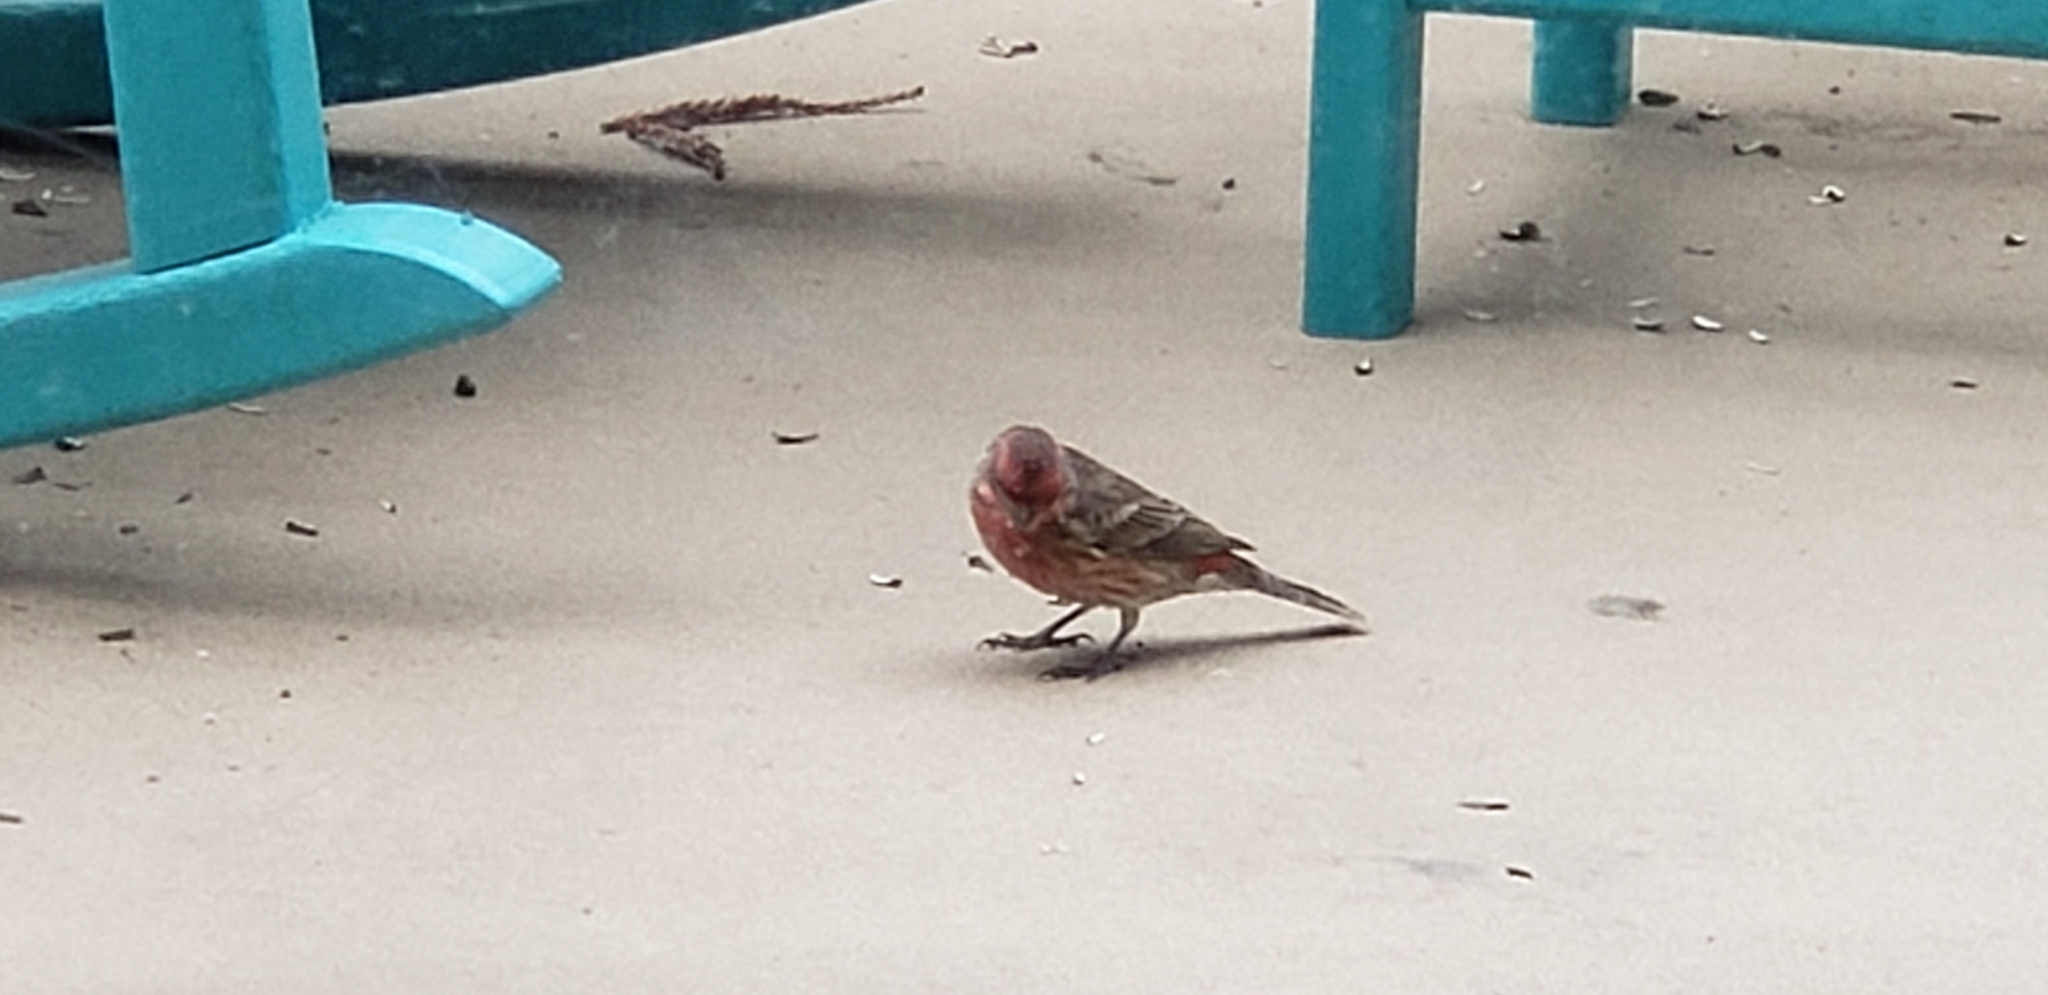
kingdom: Animalia
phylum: Chordata
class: Aves
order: Passeriformes
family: Fringillidae
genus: Haemorhous
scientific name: Haemorhous mexicanus
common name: House finch
